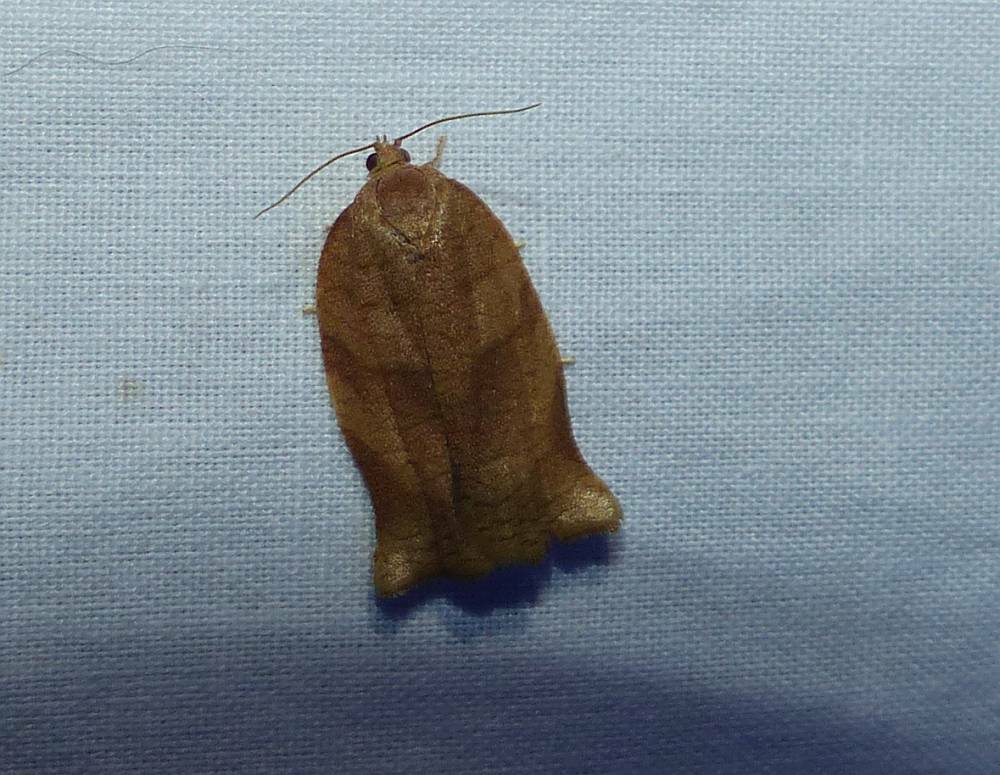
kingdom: Animalia
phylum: Arthropoda
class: Insecta
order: Lepidoptera
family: Tortricidae
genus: Choristoneura
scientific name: Choristoneura rosaceana
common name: Oblique-banded leafroller moth
